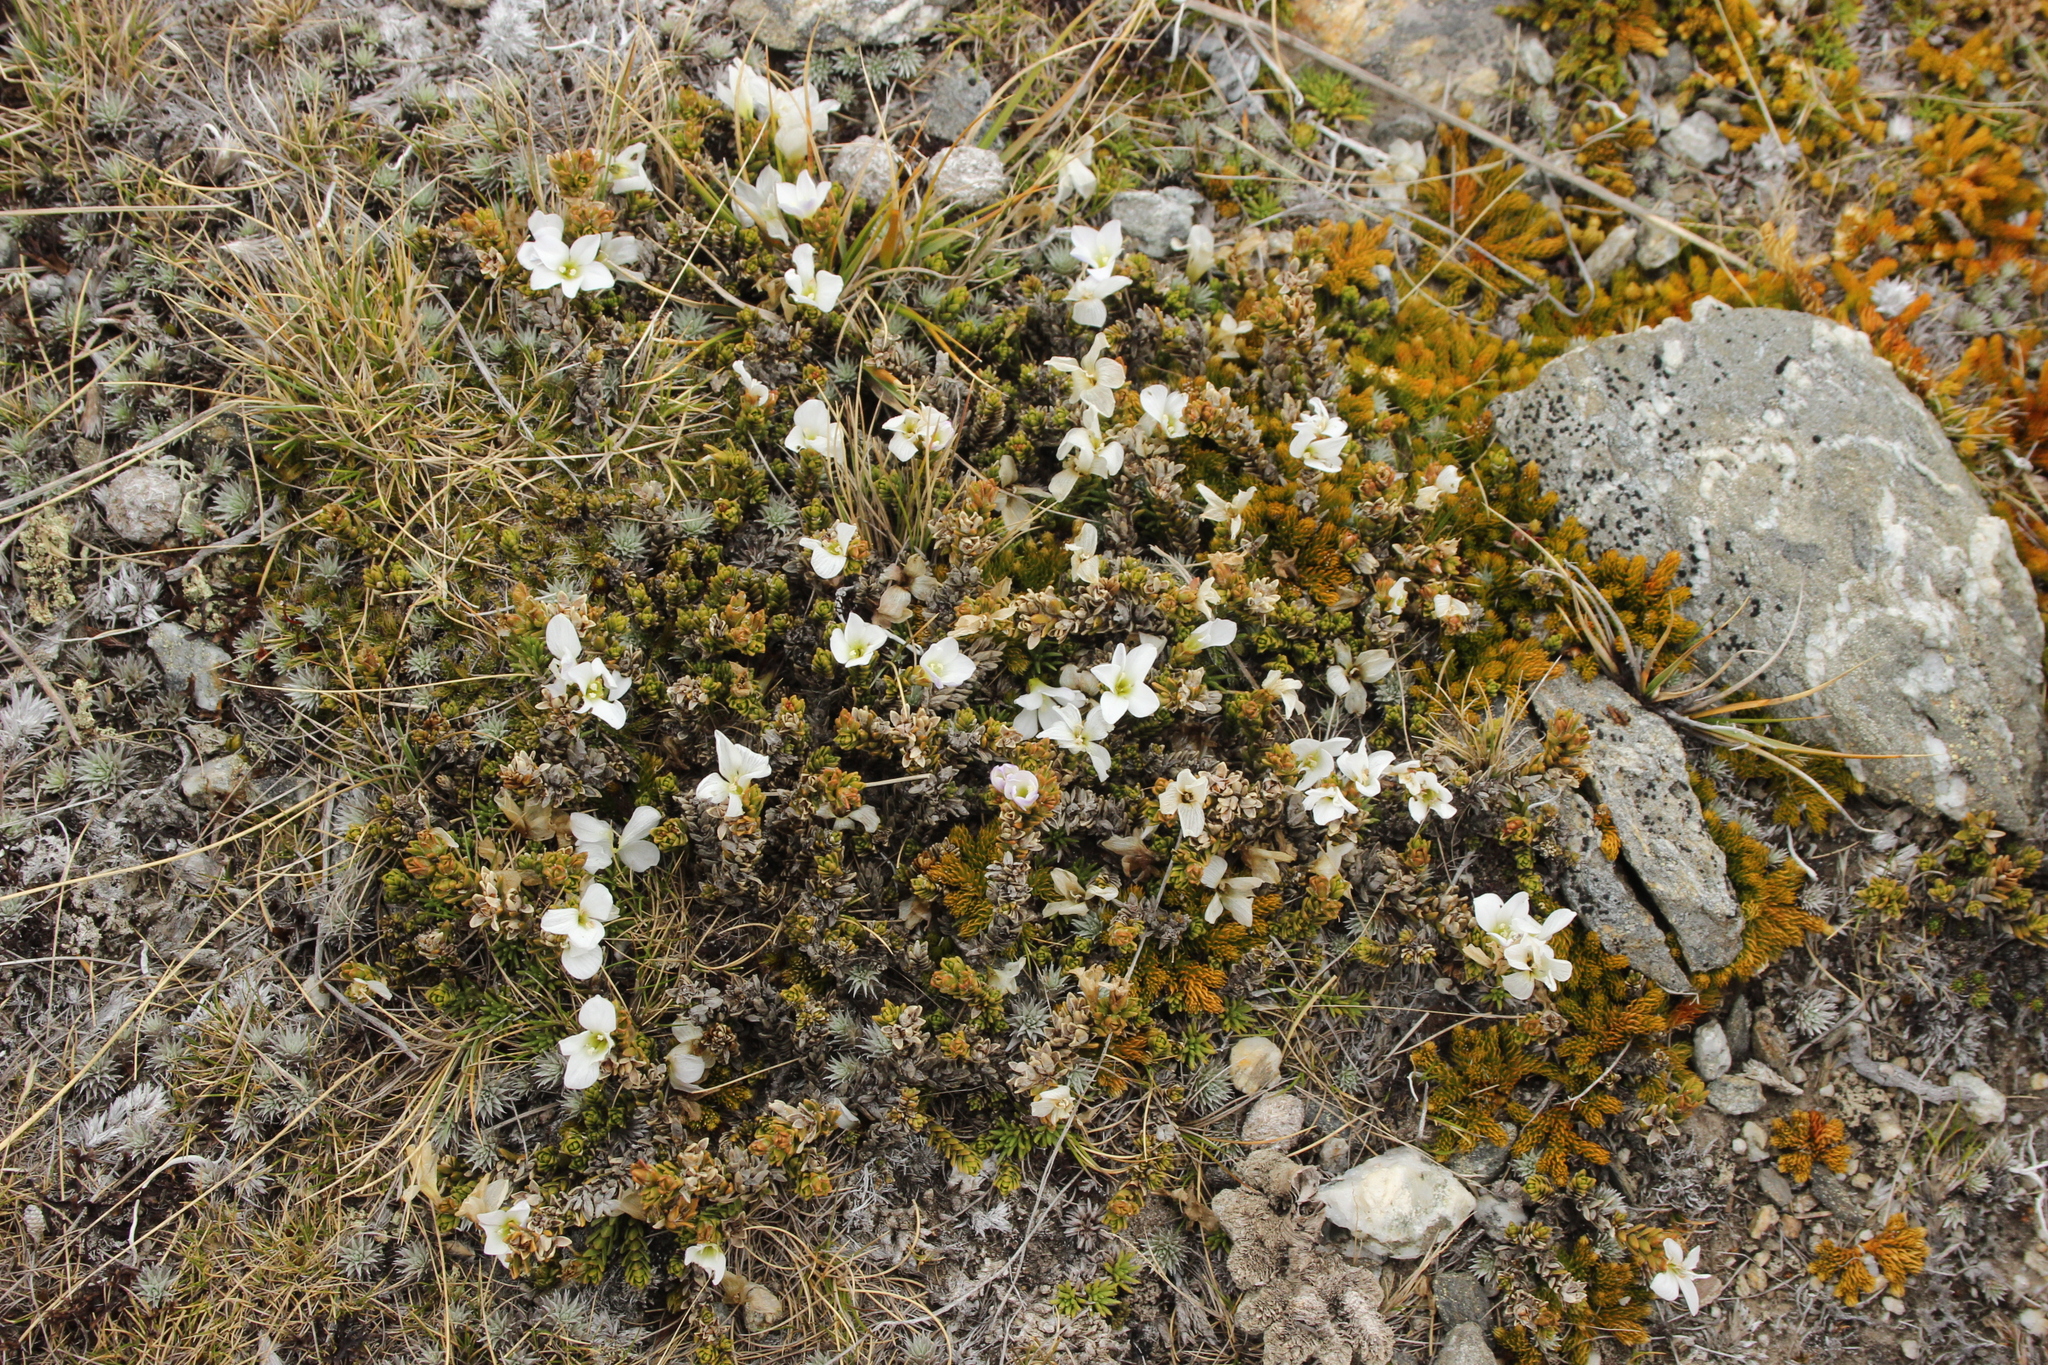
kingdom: Plantae
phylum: Tracheophyta
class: Magnoliopsida
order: Lamiales
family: Plantaginaceae
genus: Veronica
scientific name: Veronica densifolia
